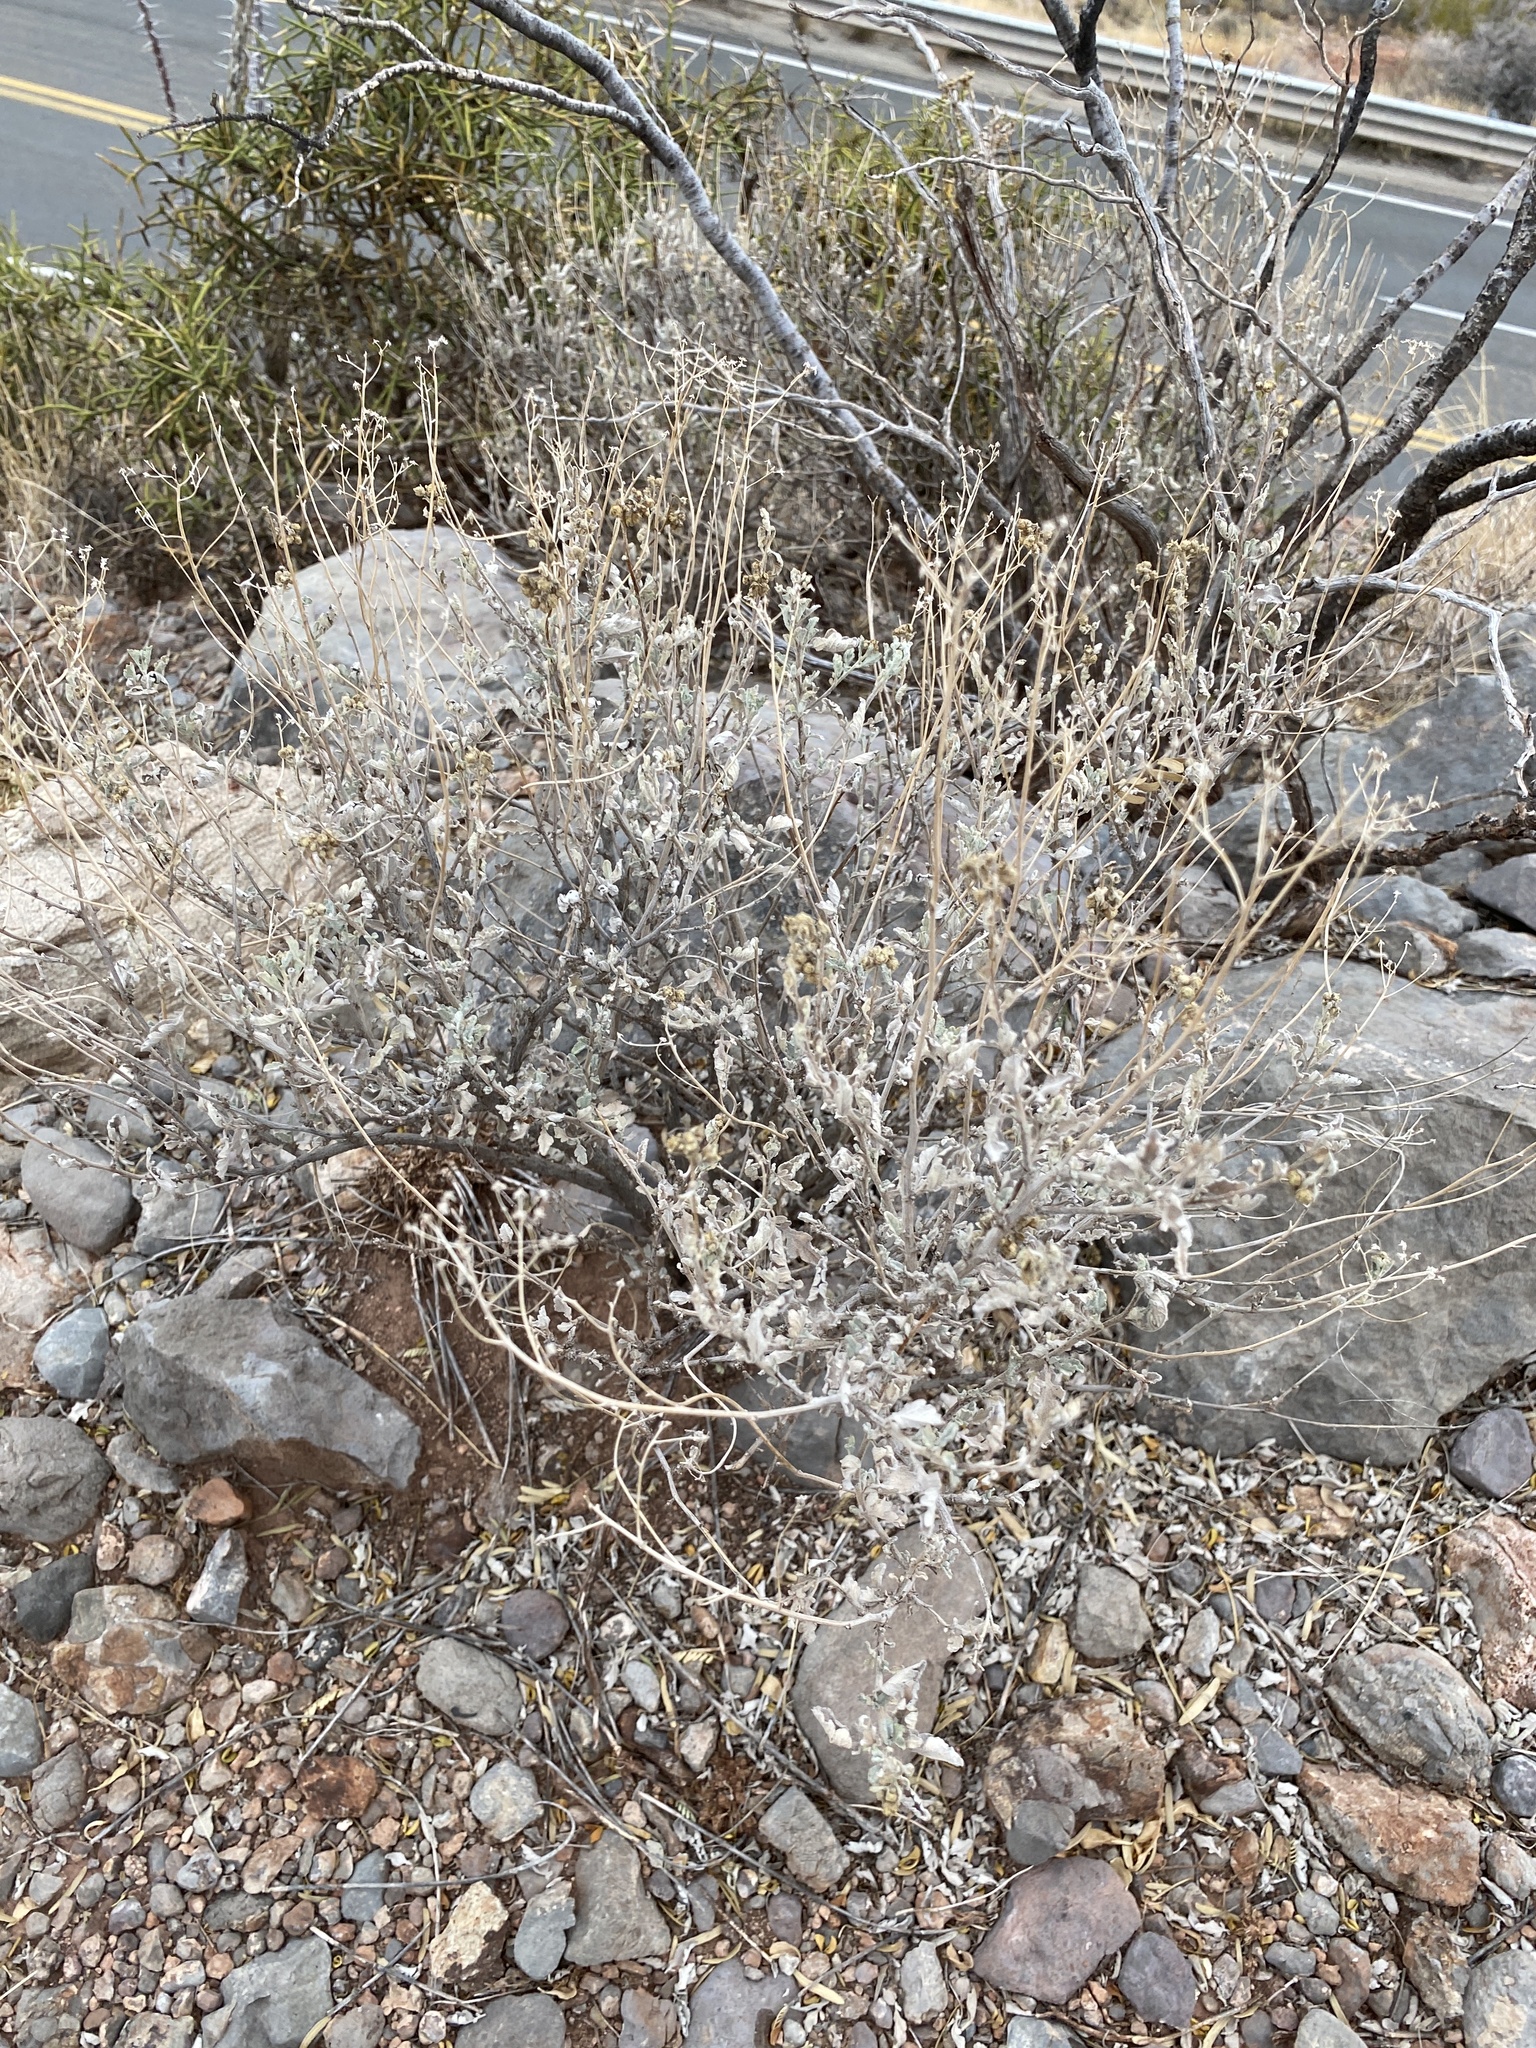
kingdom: Plantae
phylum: Tracheophyta
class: Magnoliopsida
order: Asterales
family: Asteraceae
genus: Parthenium
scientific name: Parthenium incanum
